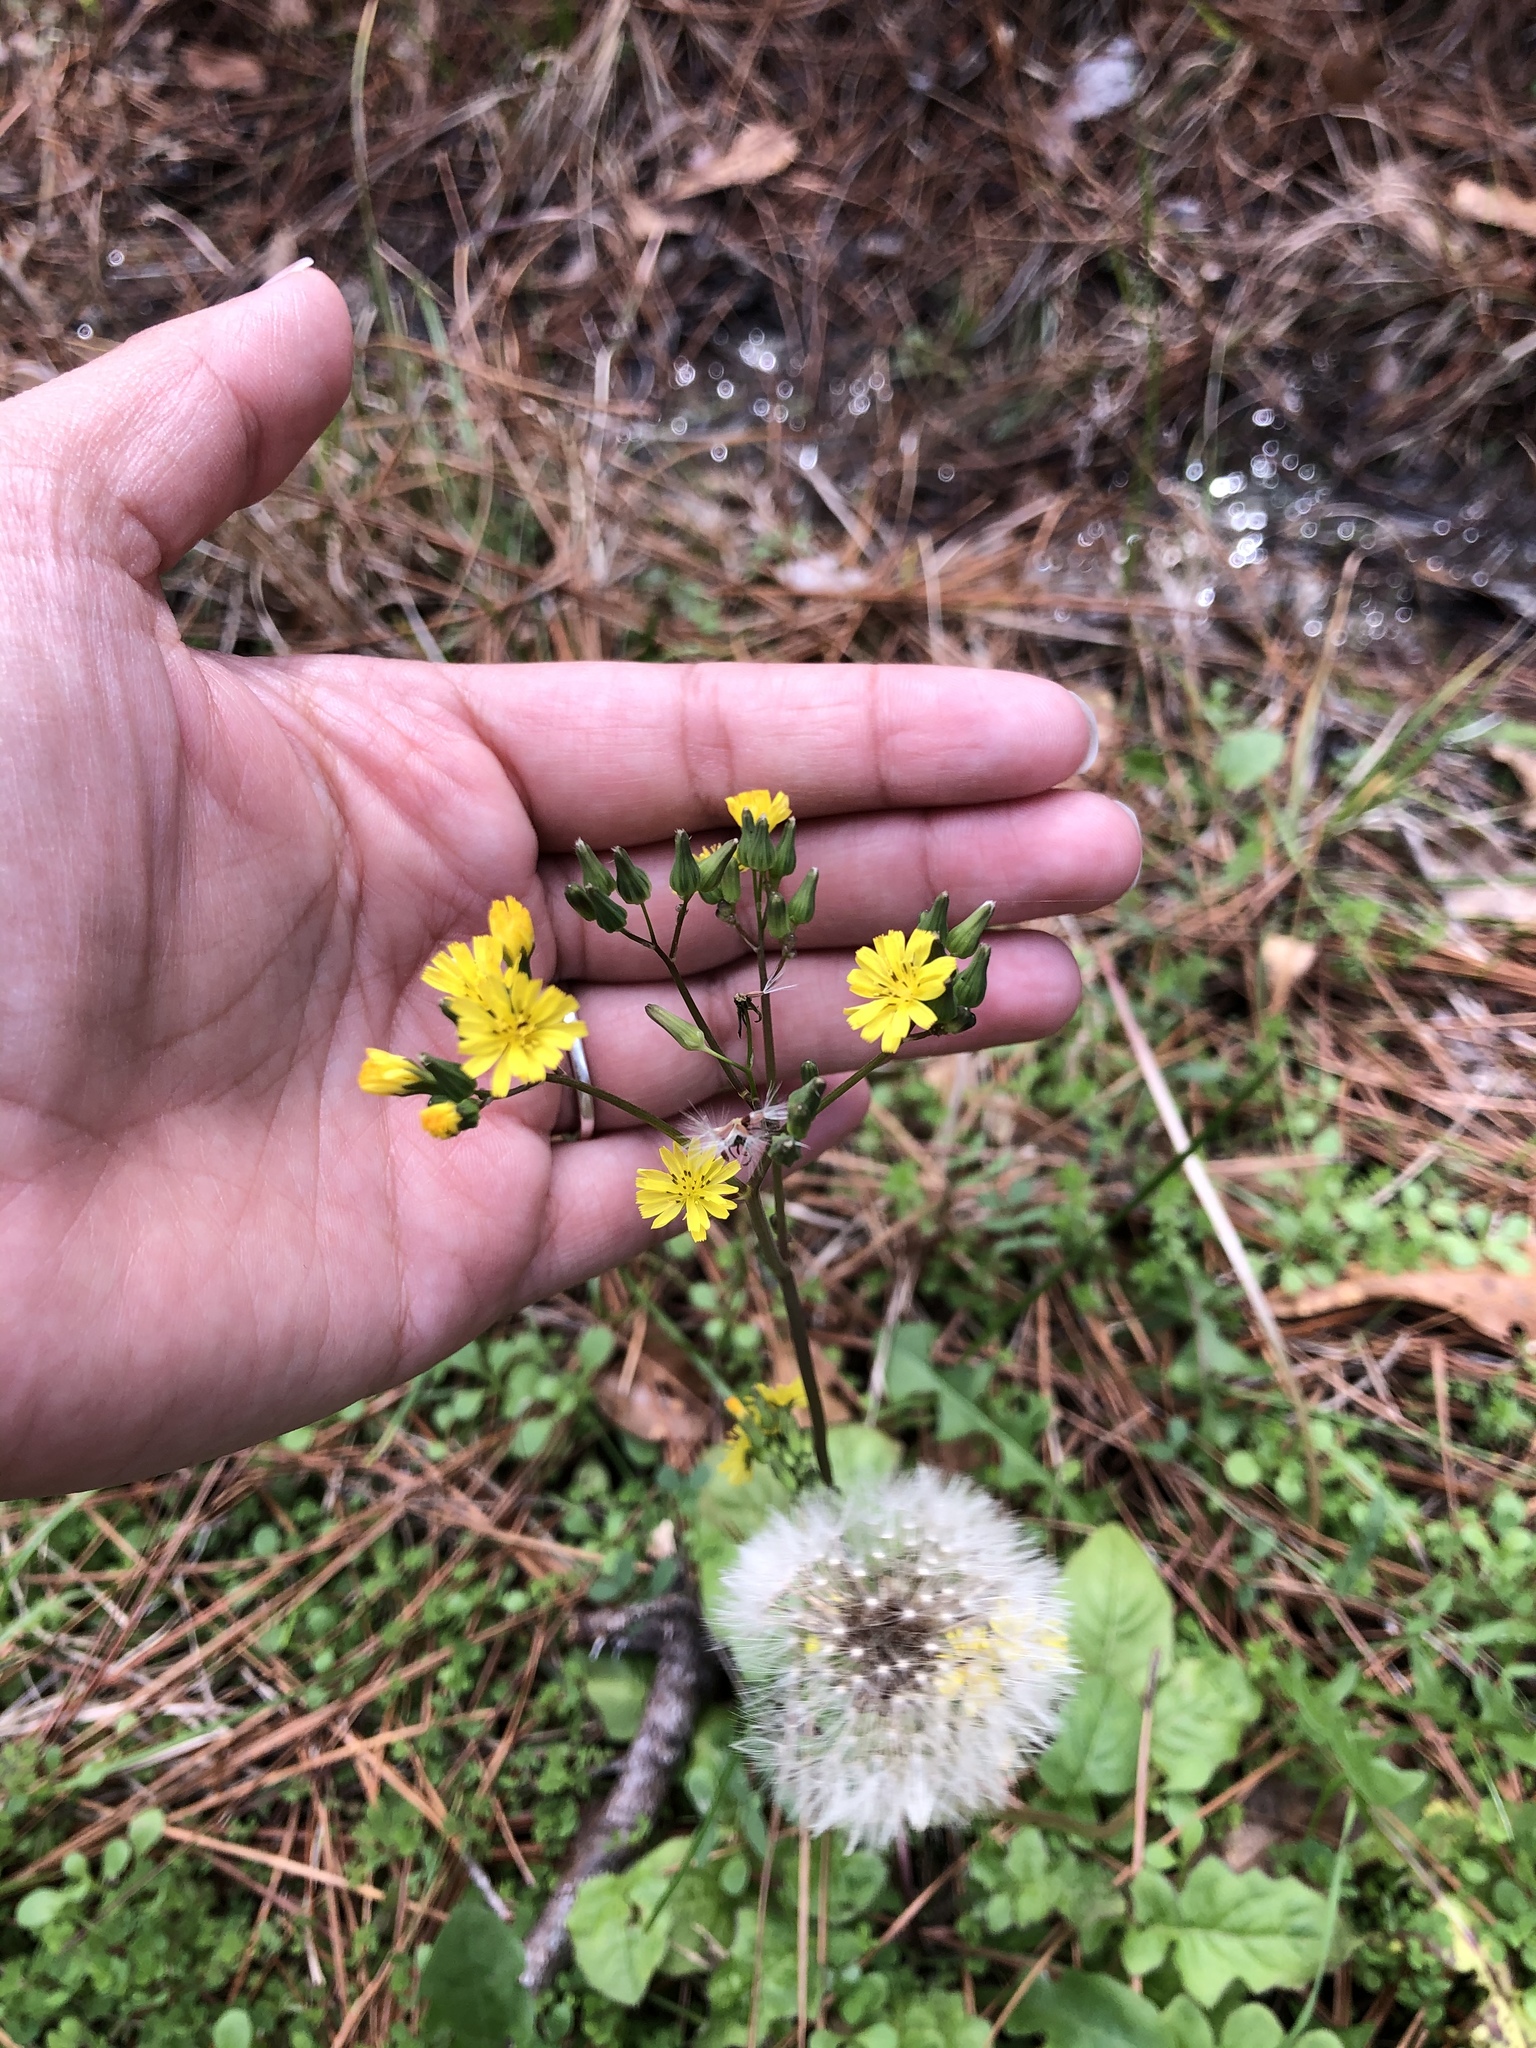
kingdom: Plantae
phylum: Tracheophyta
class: Magnoliopsida
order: Asterales
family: Asteraceae
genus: Youngia
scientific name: Youngia japonica
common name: Oriental false hawksbeard
